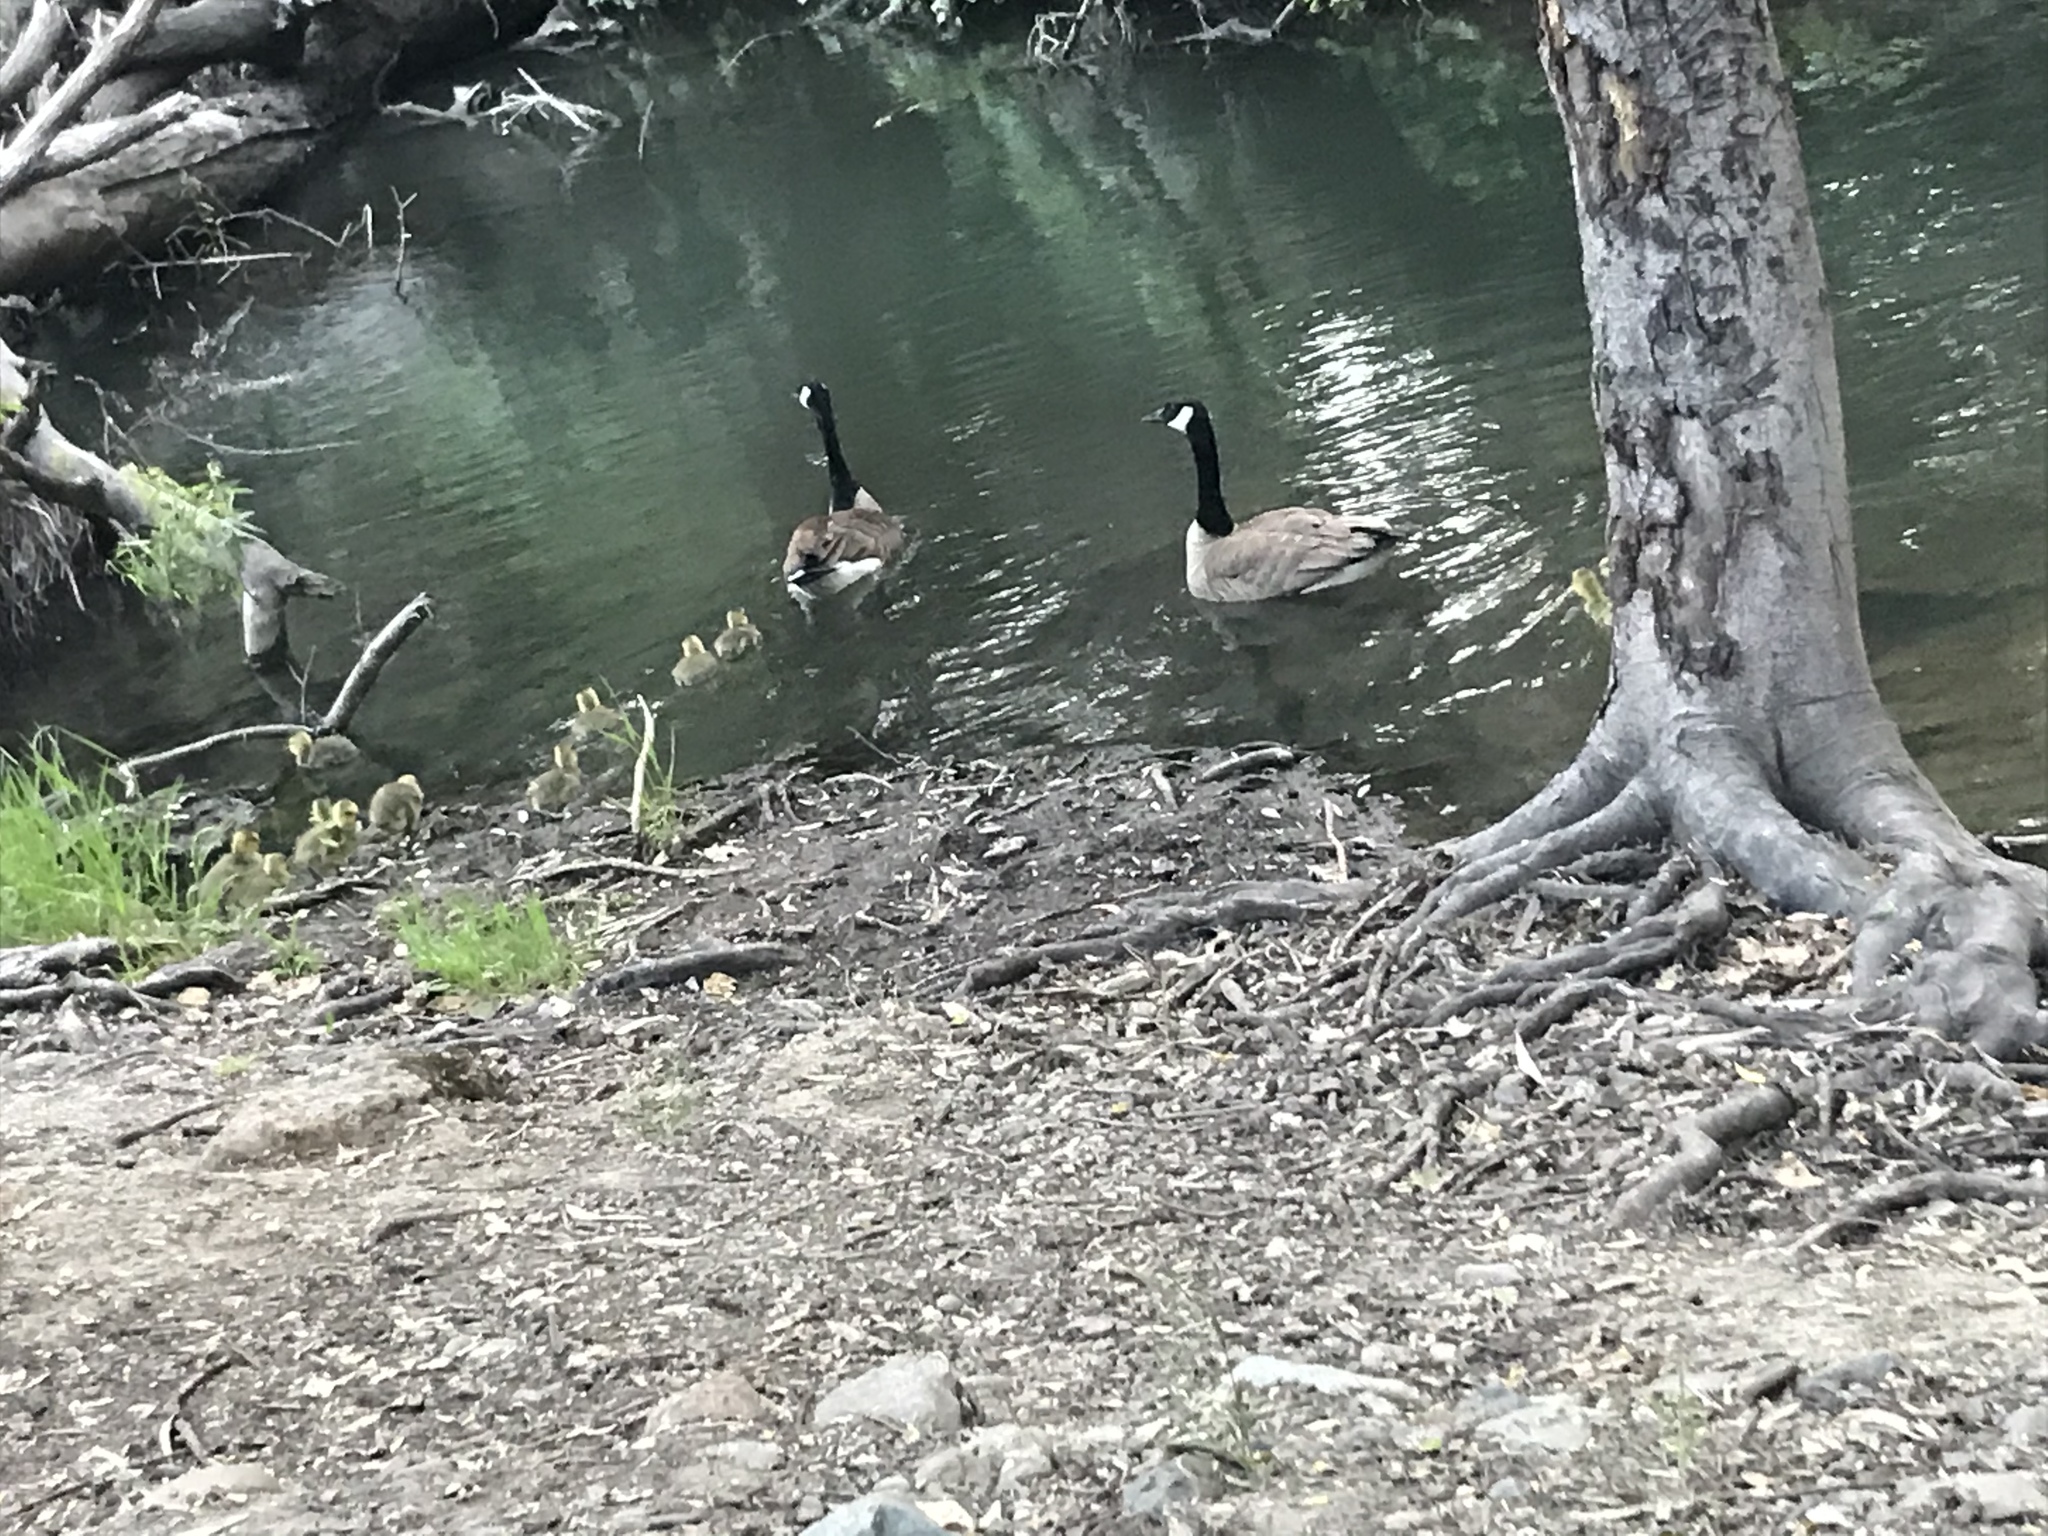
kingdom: Animalia
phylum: Chordata
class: Aves
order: Anseriformes
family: Anatidae
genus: Branta
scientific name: Branta canadensis
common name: Canada goose
